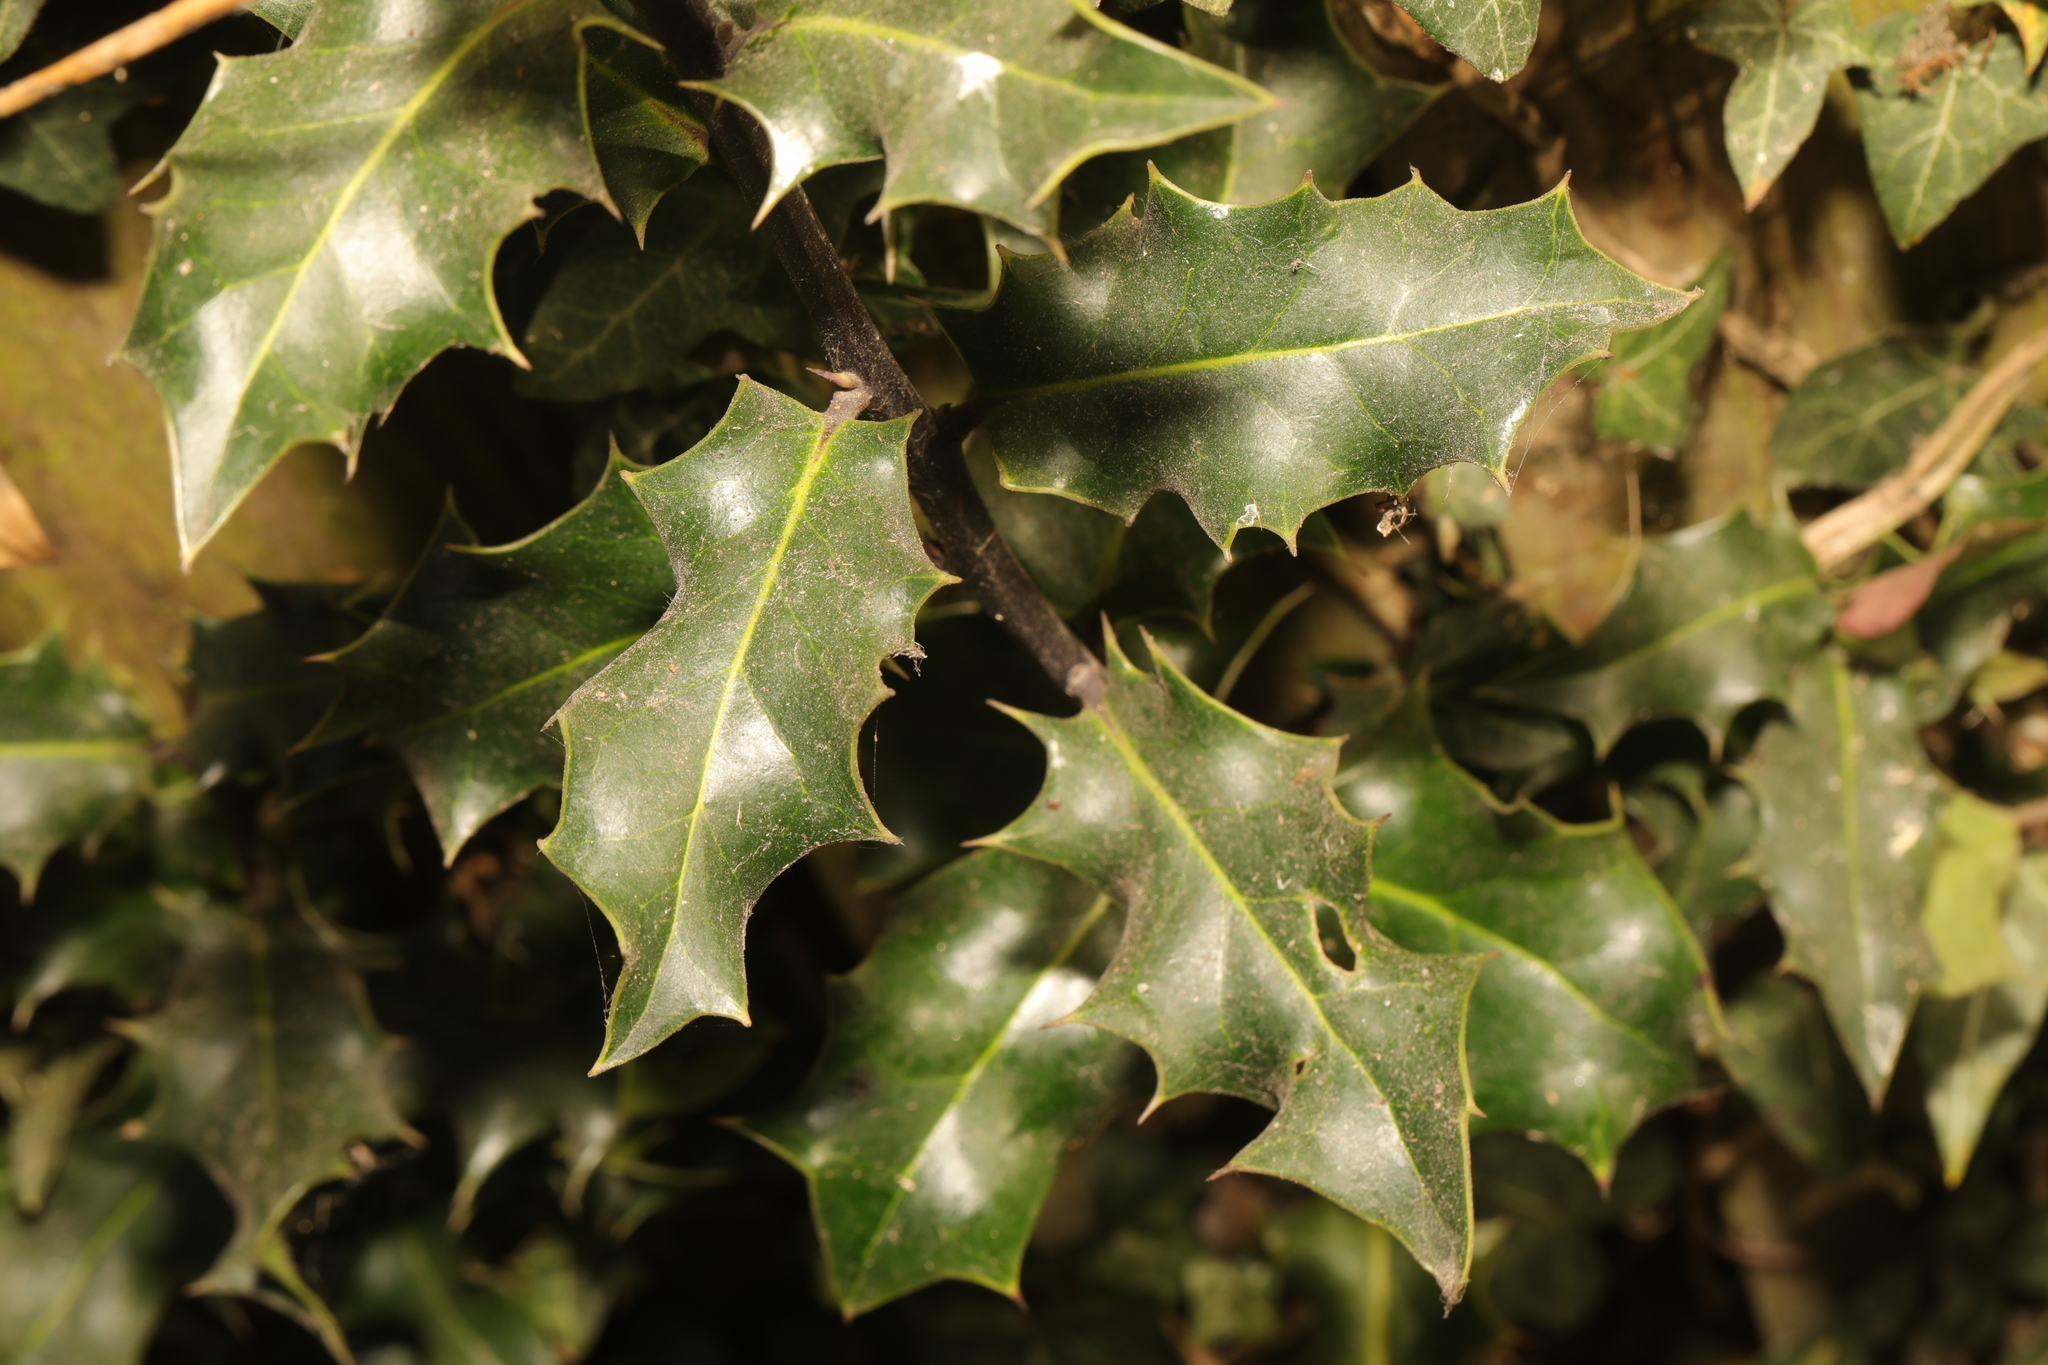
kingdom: Plantae
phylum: Tracheophyta
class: Magnoliopsida
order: Aquifoliales
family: Aquifoliaceae
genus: Ilex
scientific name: Ilex aquifolium
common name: English holly
